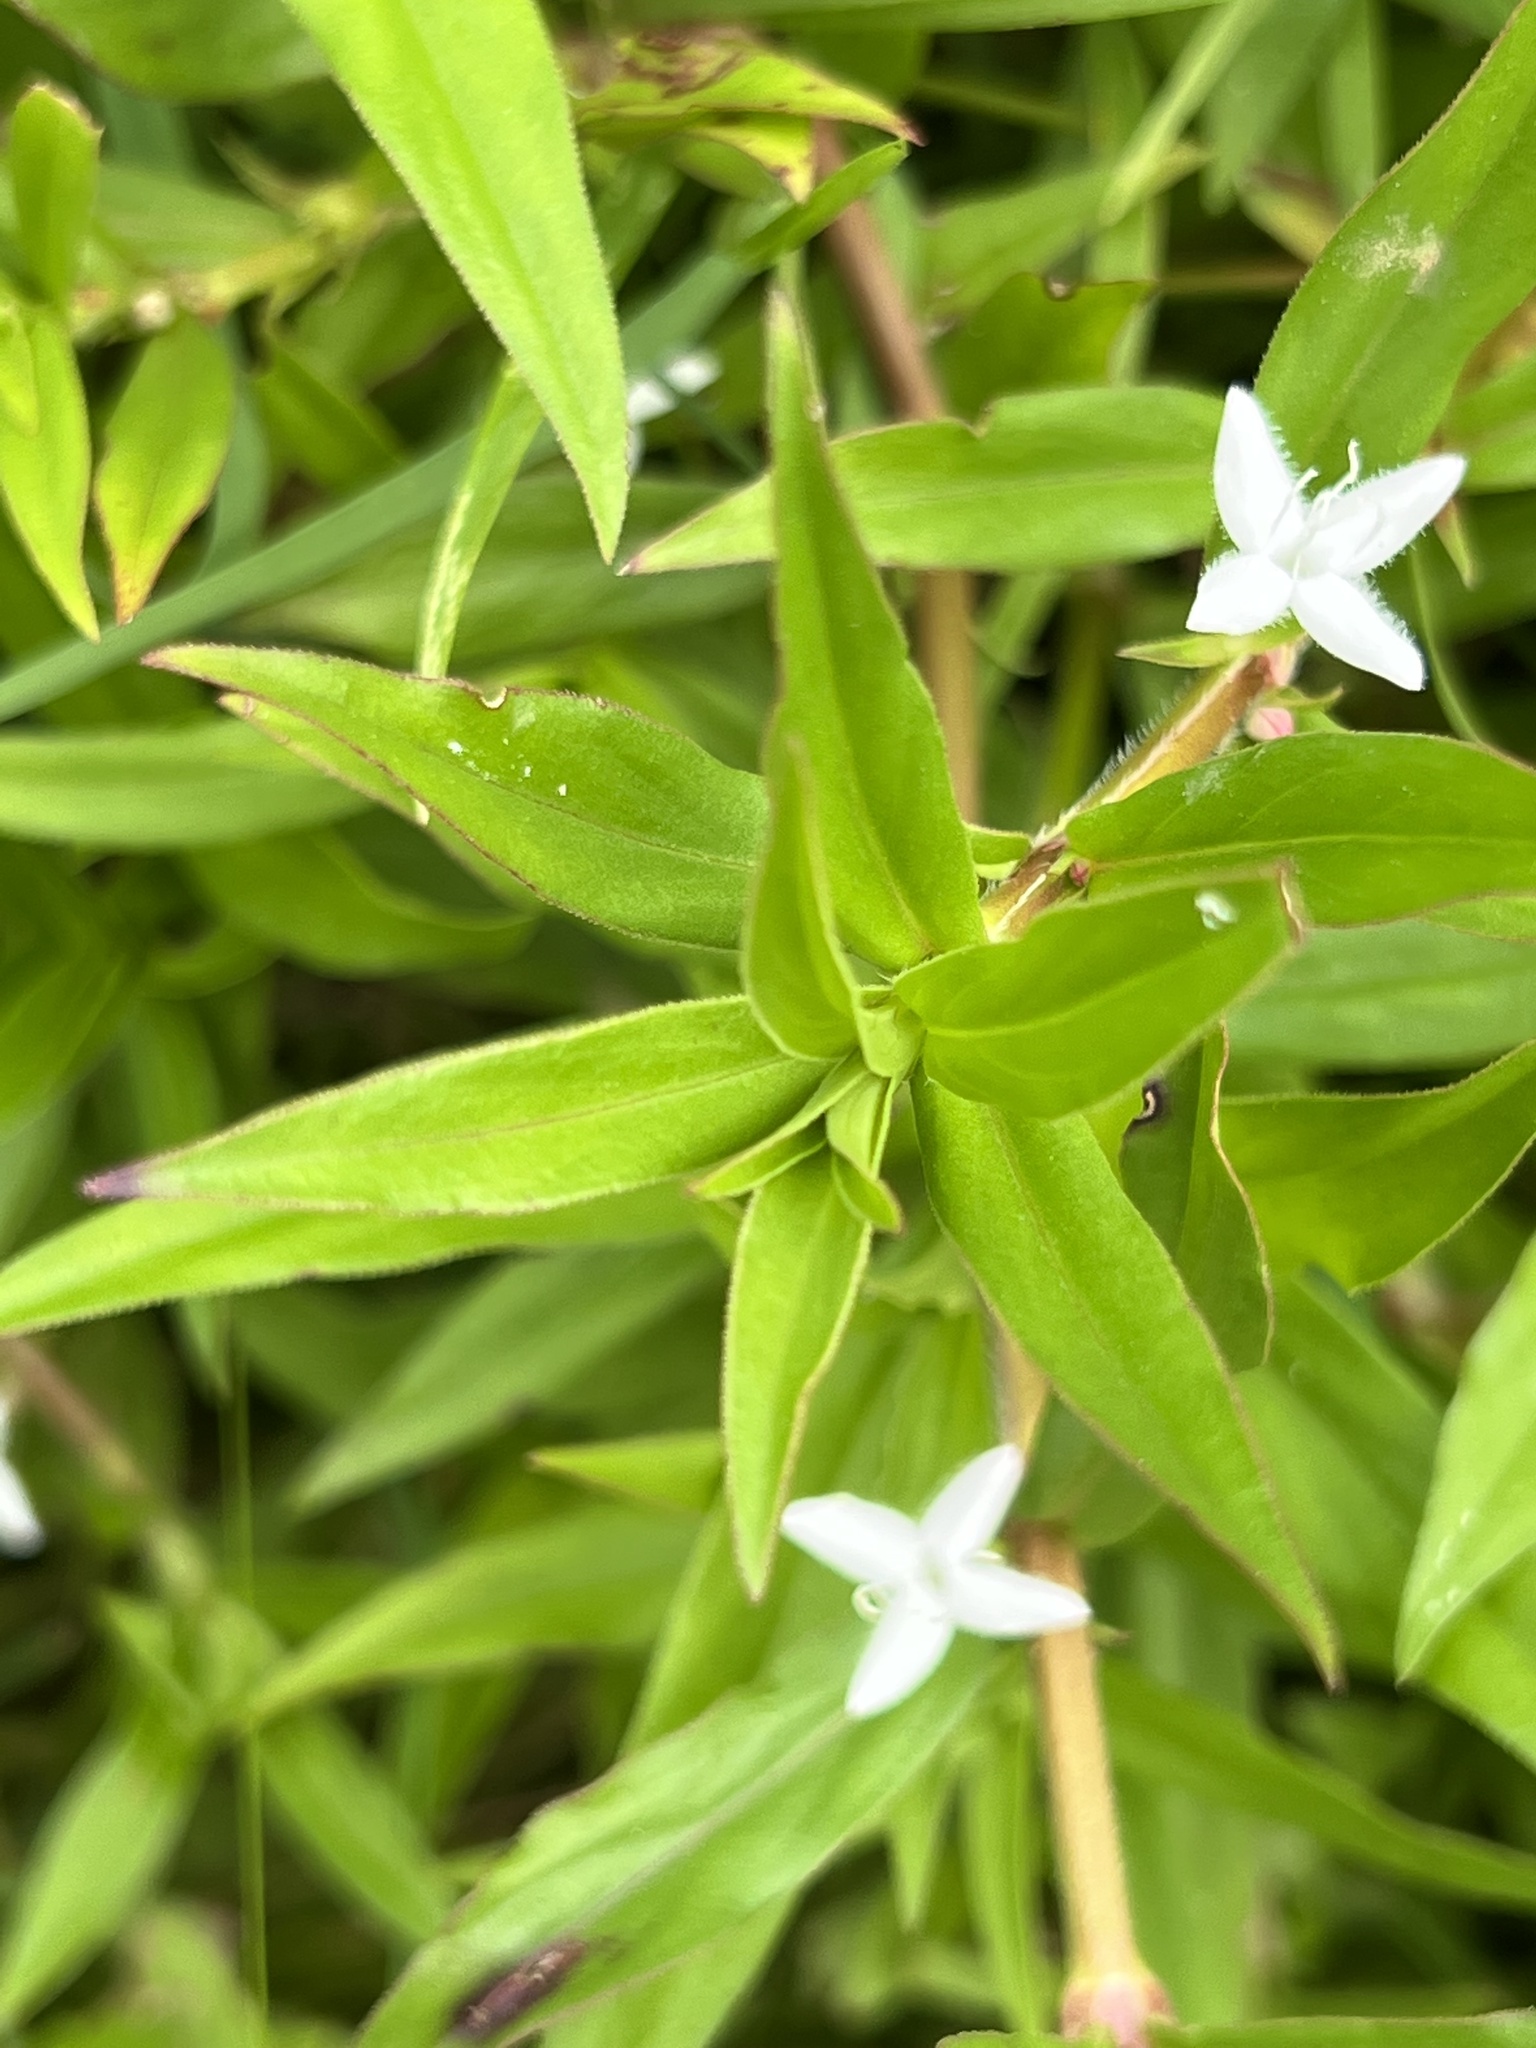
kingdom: Plantae
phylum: Tracheophyta
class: Magnoliopsida
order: Gentianales
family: Rubiaceae
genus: Diodia
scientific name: Diodia virginiana
